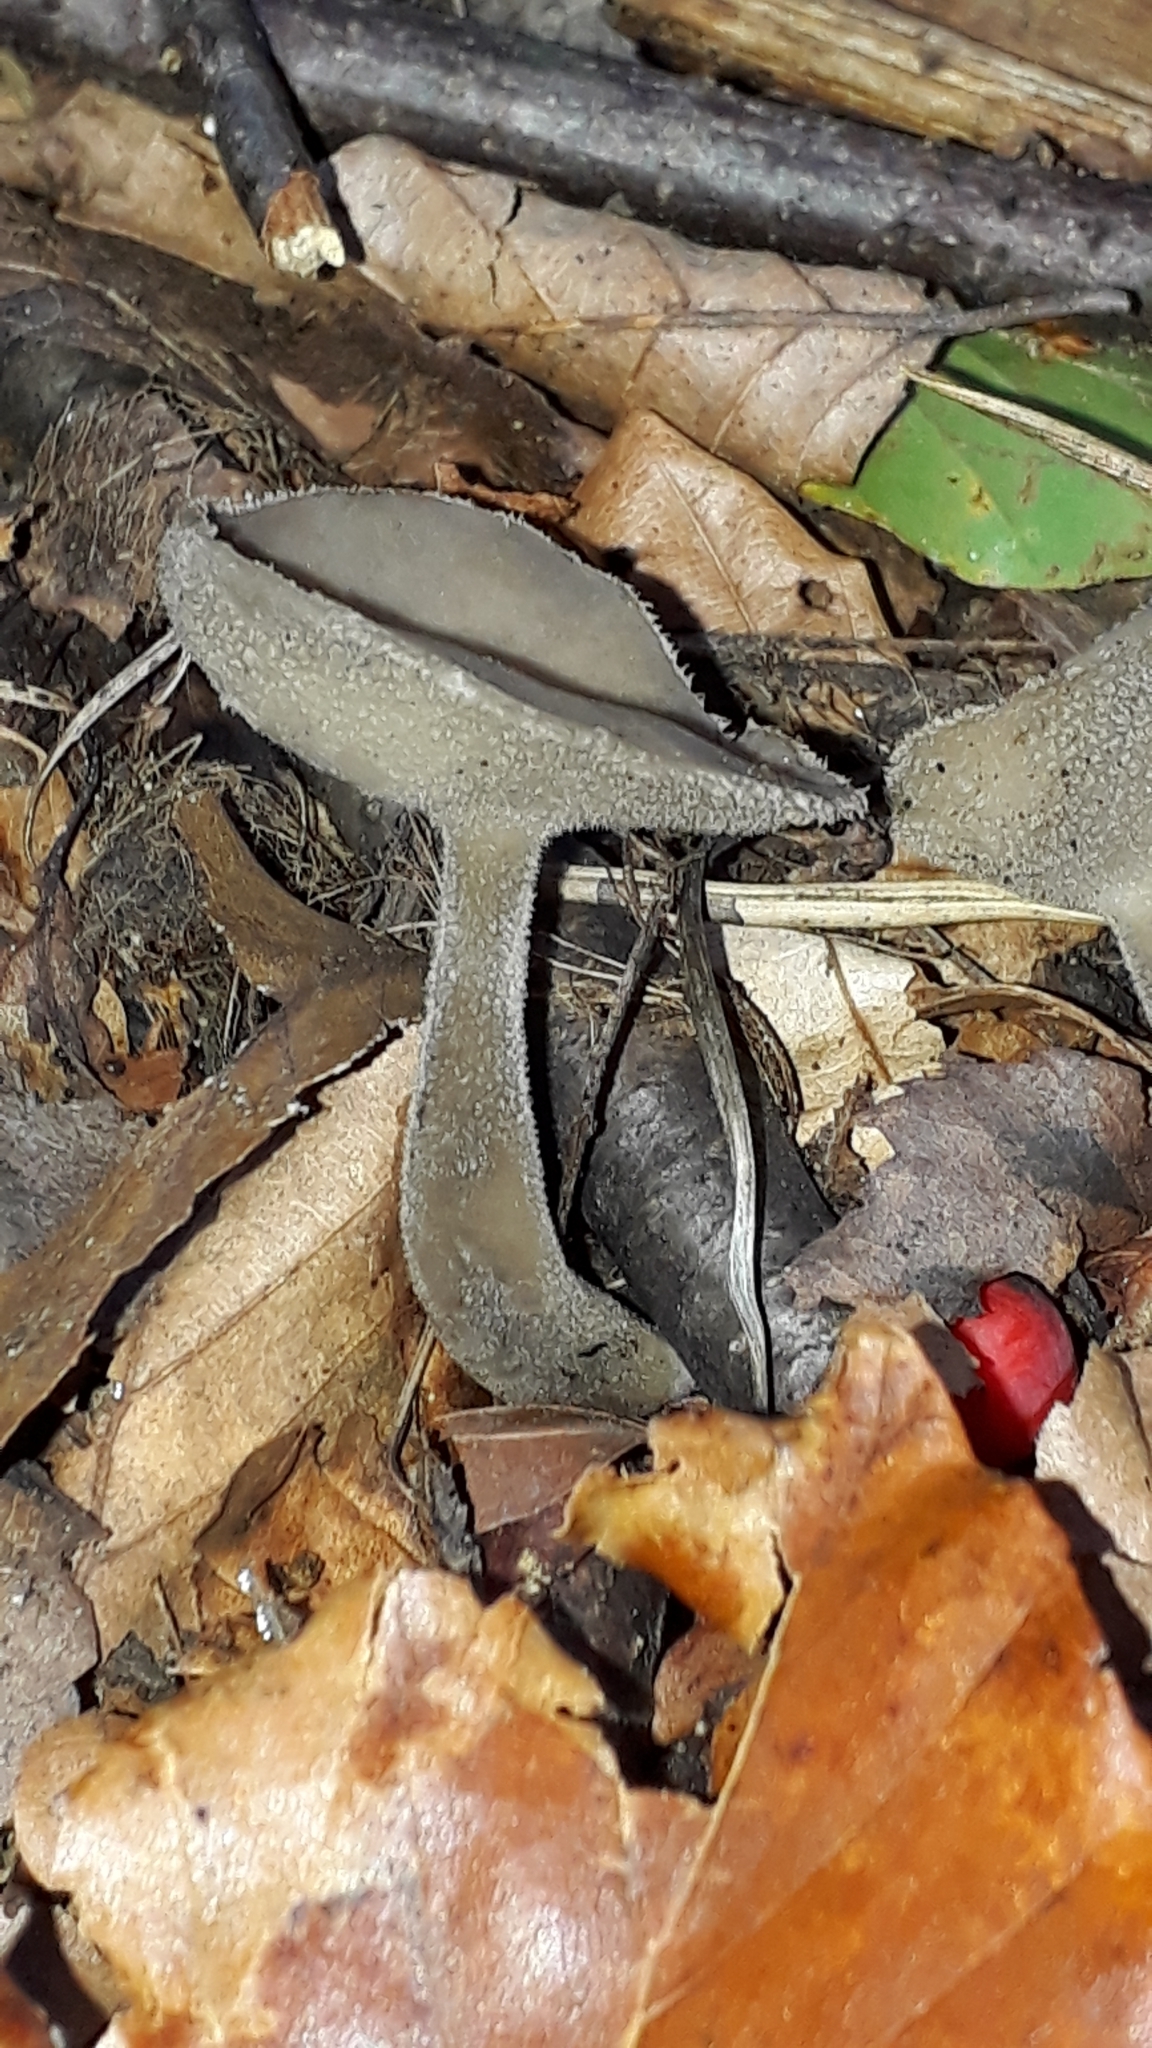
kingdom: Fungi
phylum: Ascomycota
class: Pezizomycetes
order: Pezizales
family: Helvellaceae
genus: Helvella
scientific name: Helvella macropus
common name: Felt saddle
